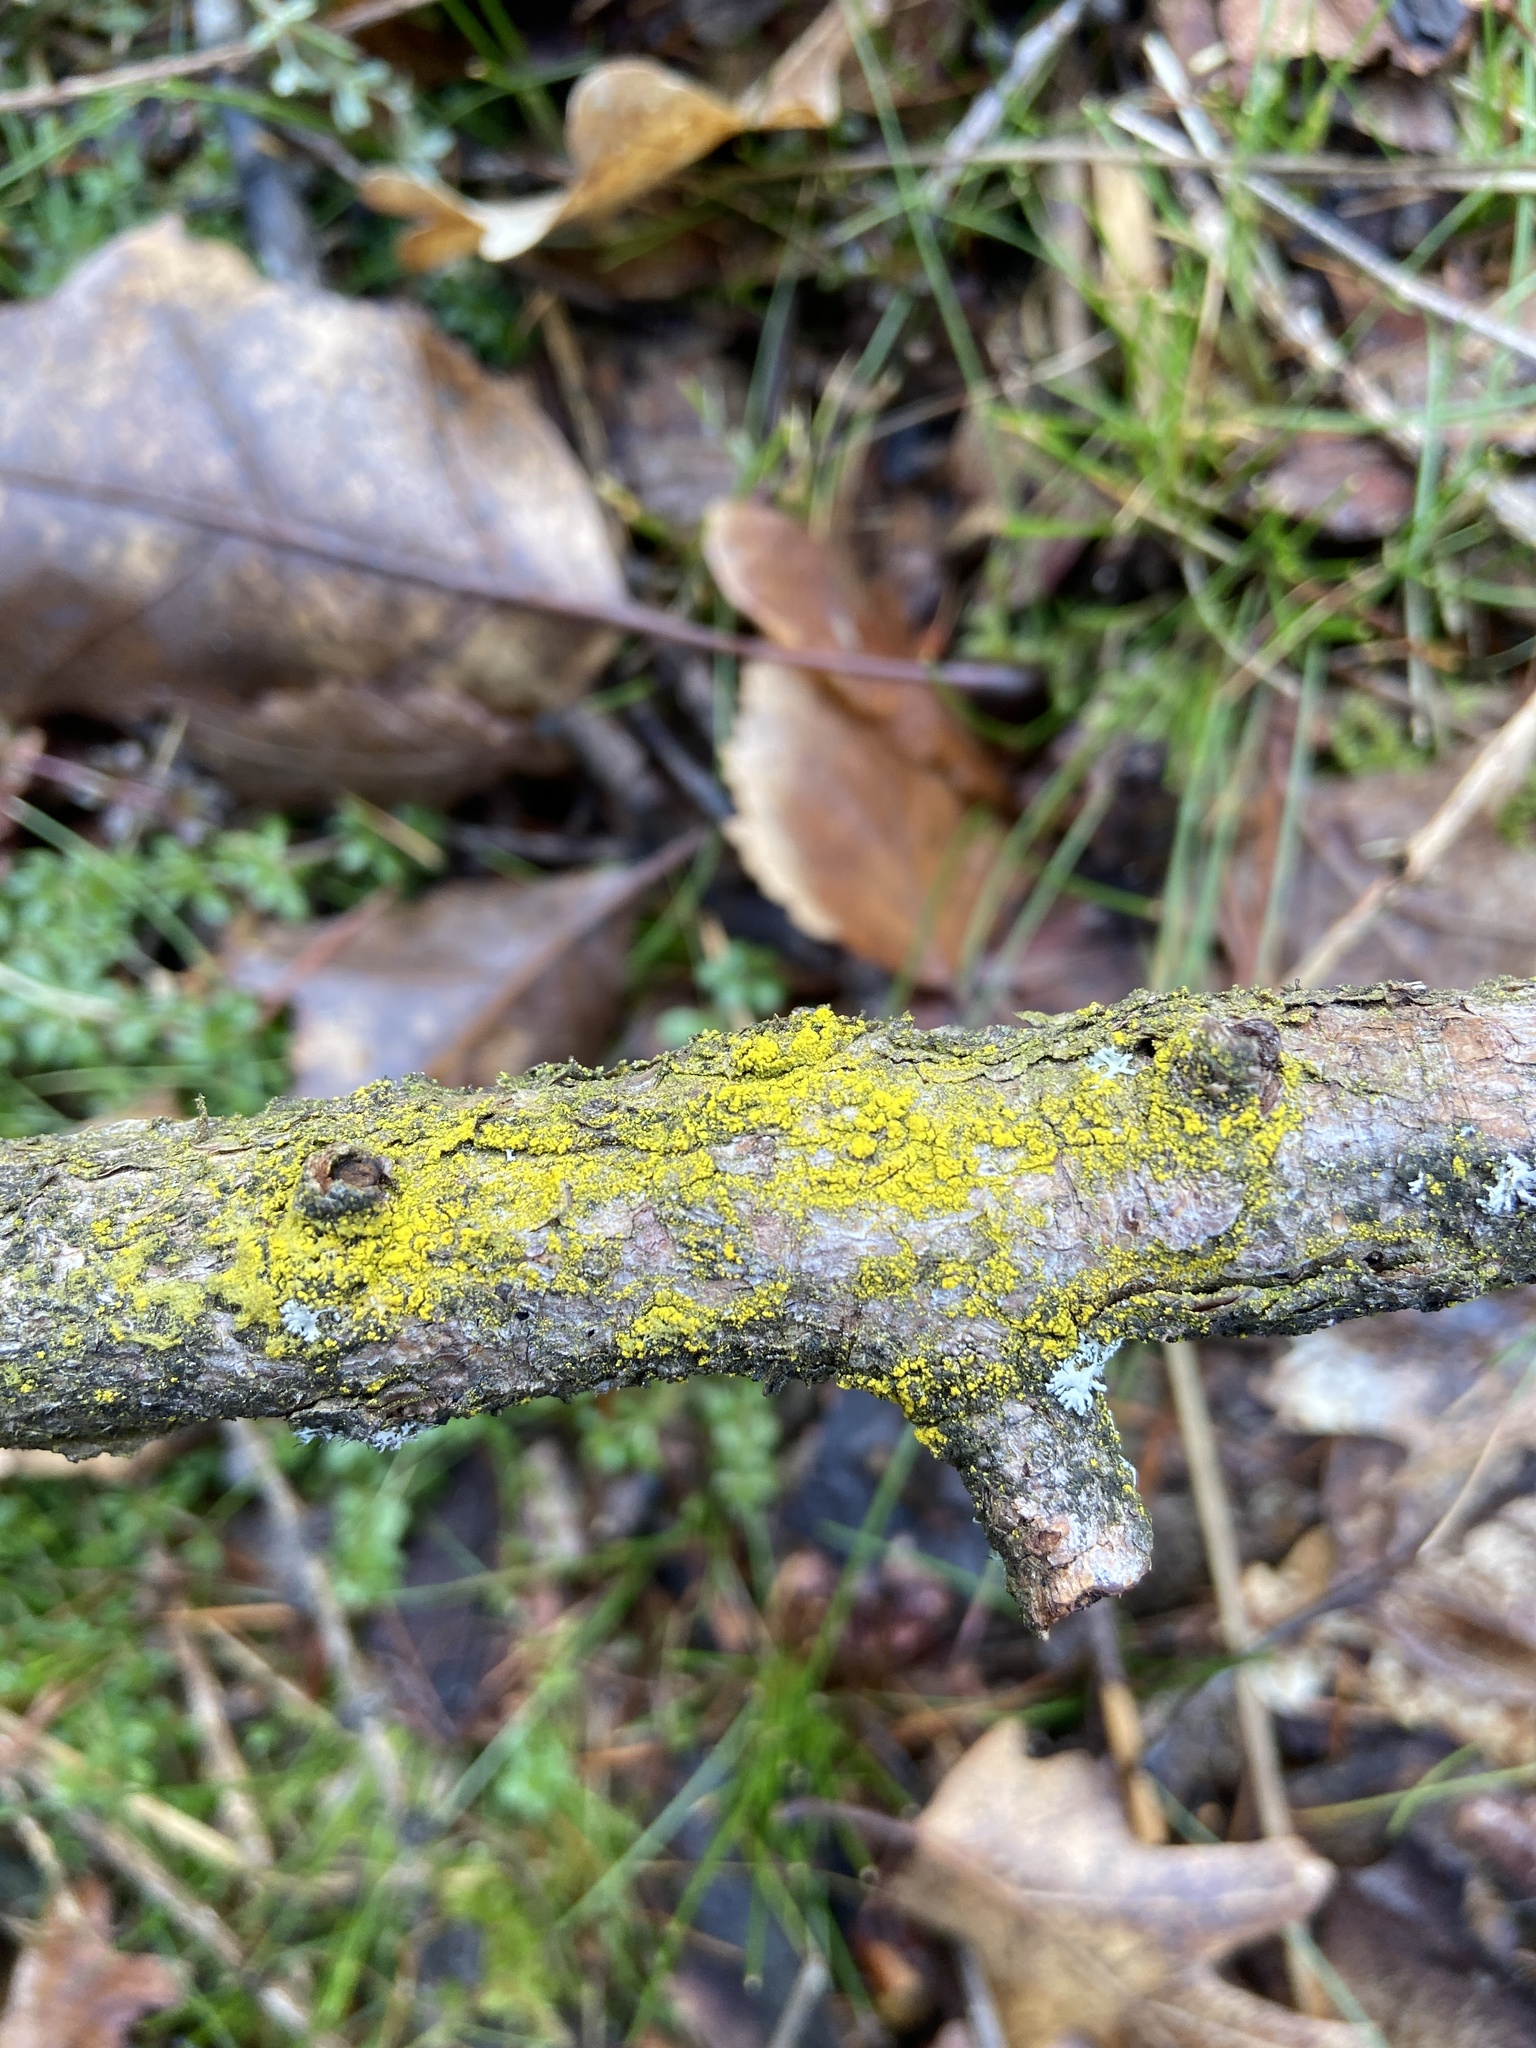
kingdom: Fungi
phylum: Ascomycota
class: Candelariomycetes
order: Candelariales
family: Candelariaceae
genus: Candelariella
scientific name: Candelariella xanthostigma
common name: Granular goldspeck lichen
